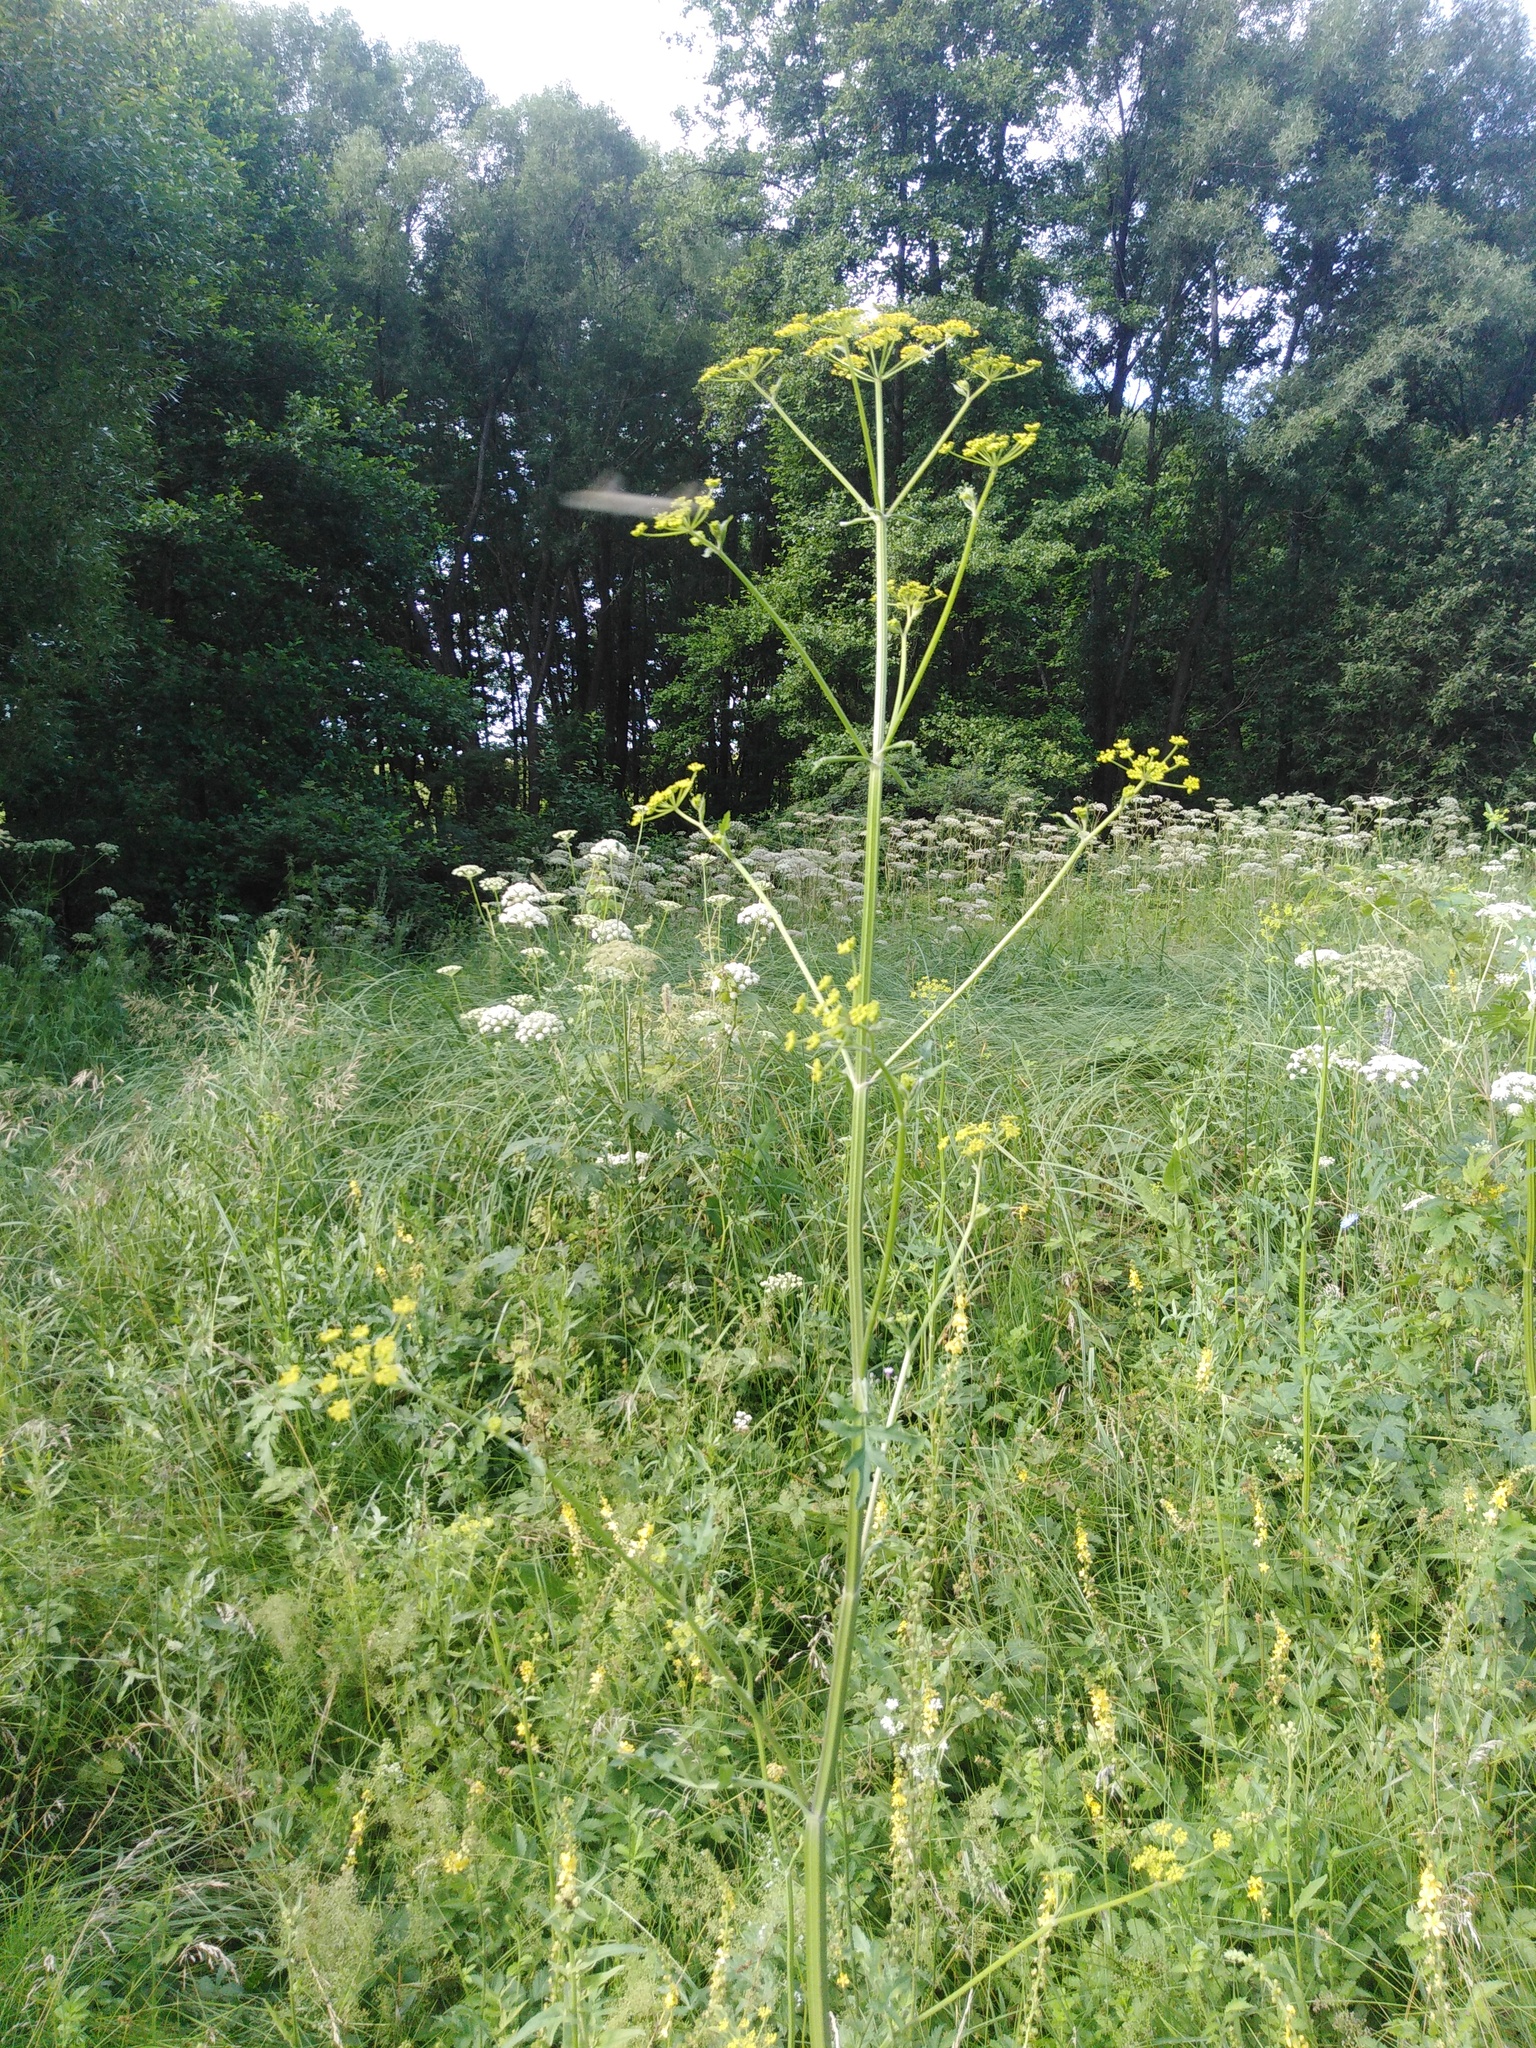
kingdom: Plantae
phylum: Tracheophyta
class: Magnoliopsida
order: Apiales
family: Apiaceae
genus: Pastinaca
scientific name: Pastinaca sativa
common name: Wild parsnip
